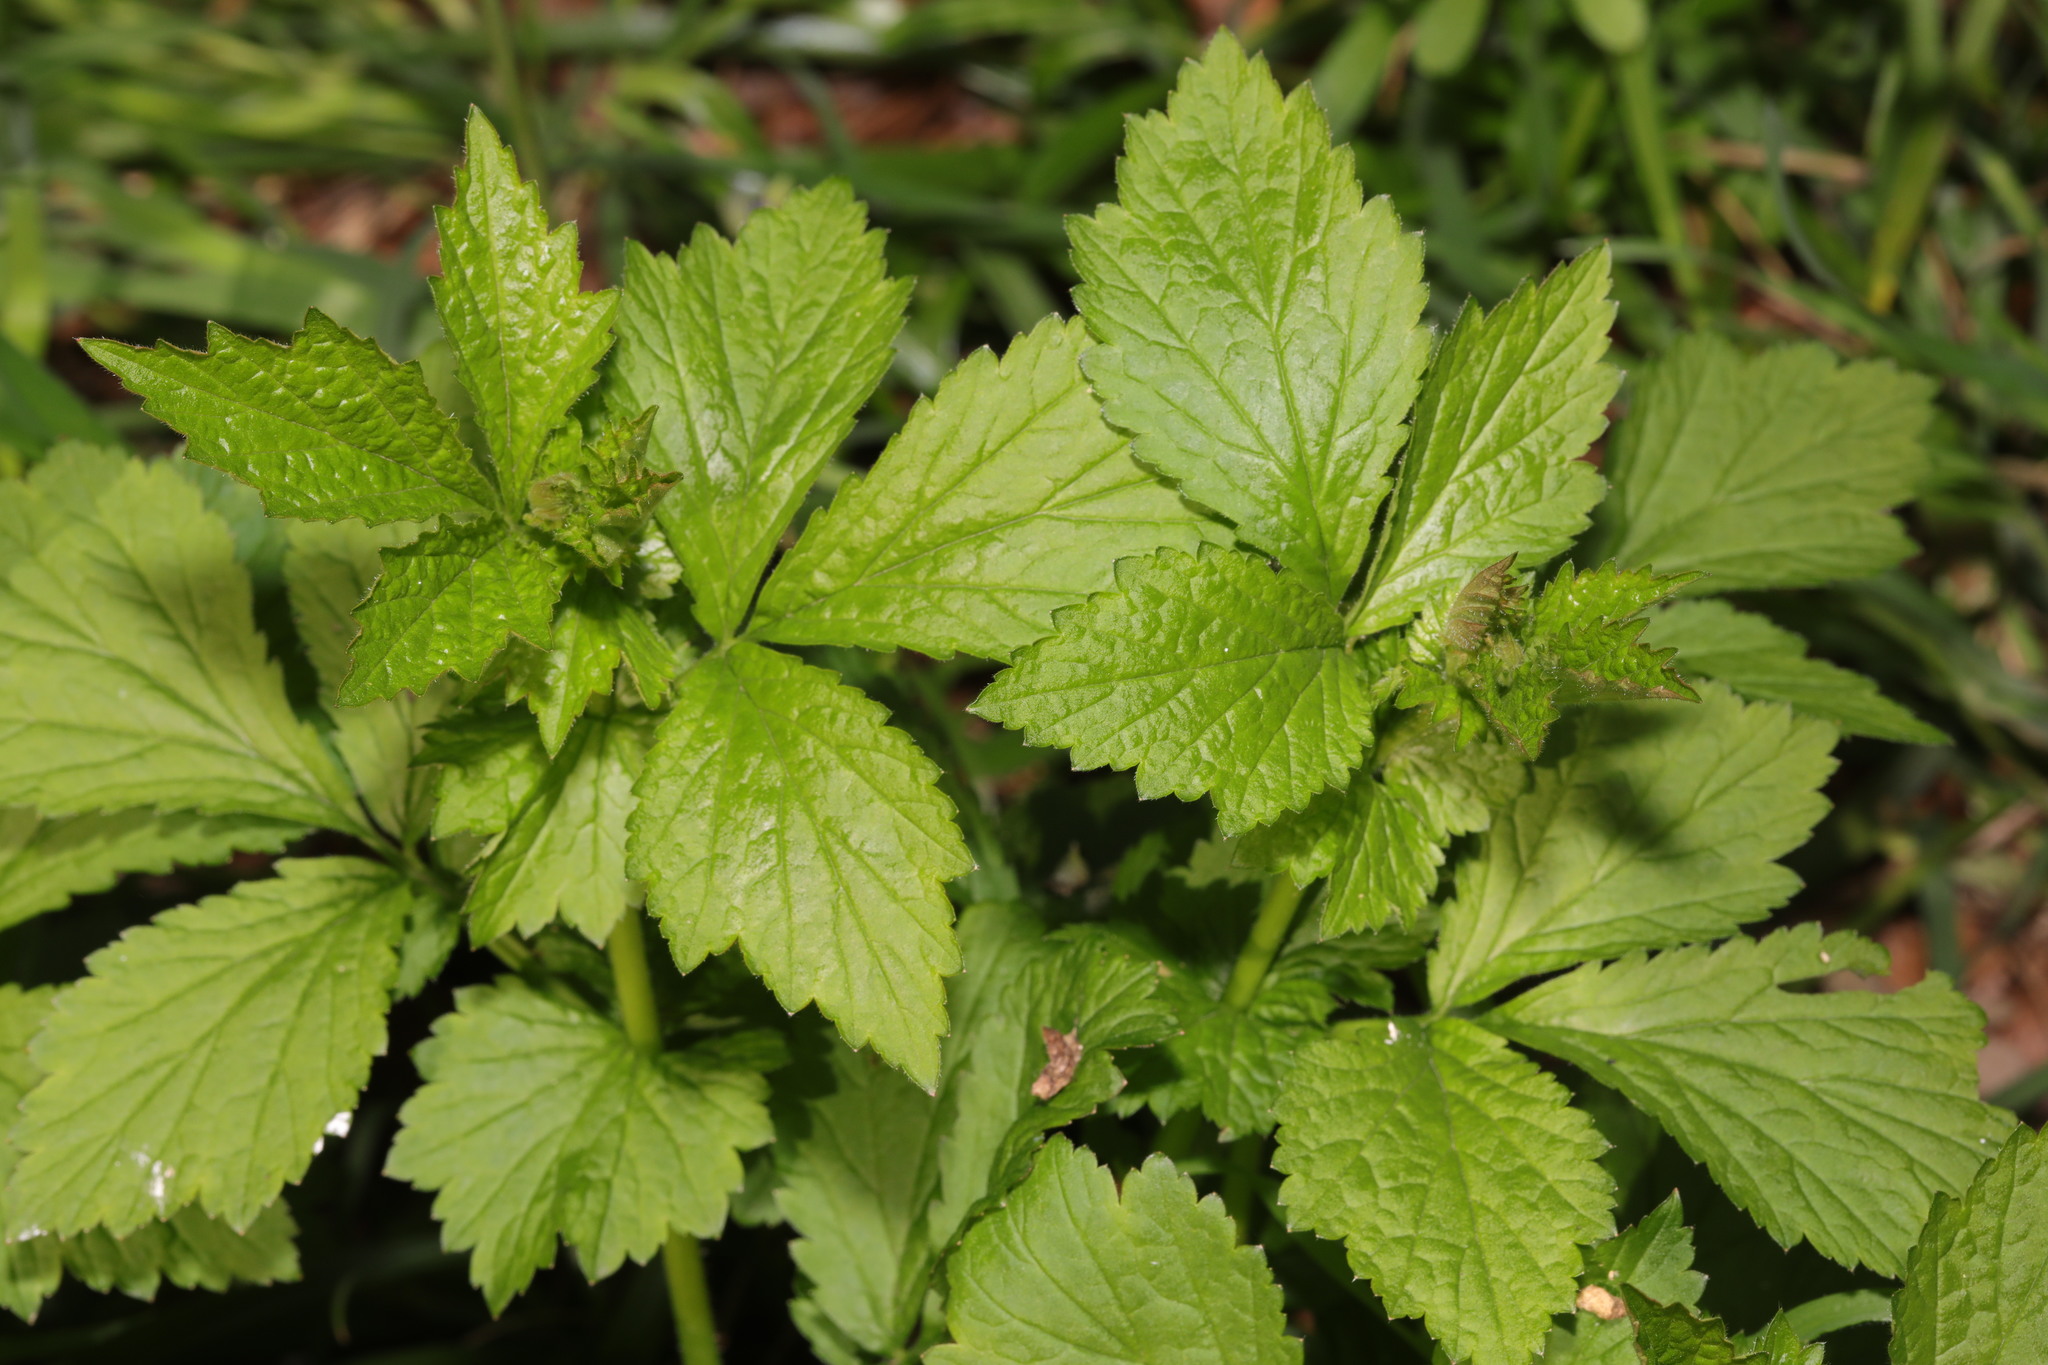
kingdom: Plantae
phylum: Tracheophyta
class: Magnoliopsida
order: Rosales
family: Rosaceae
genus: Geum
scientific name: Geum urbanum
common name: Wood avens
